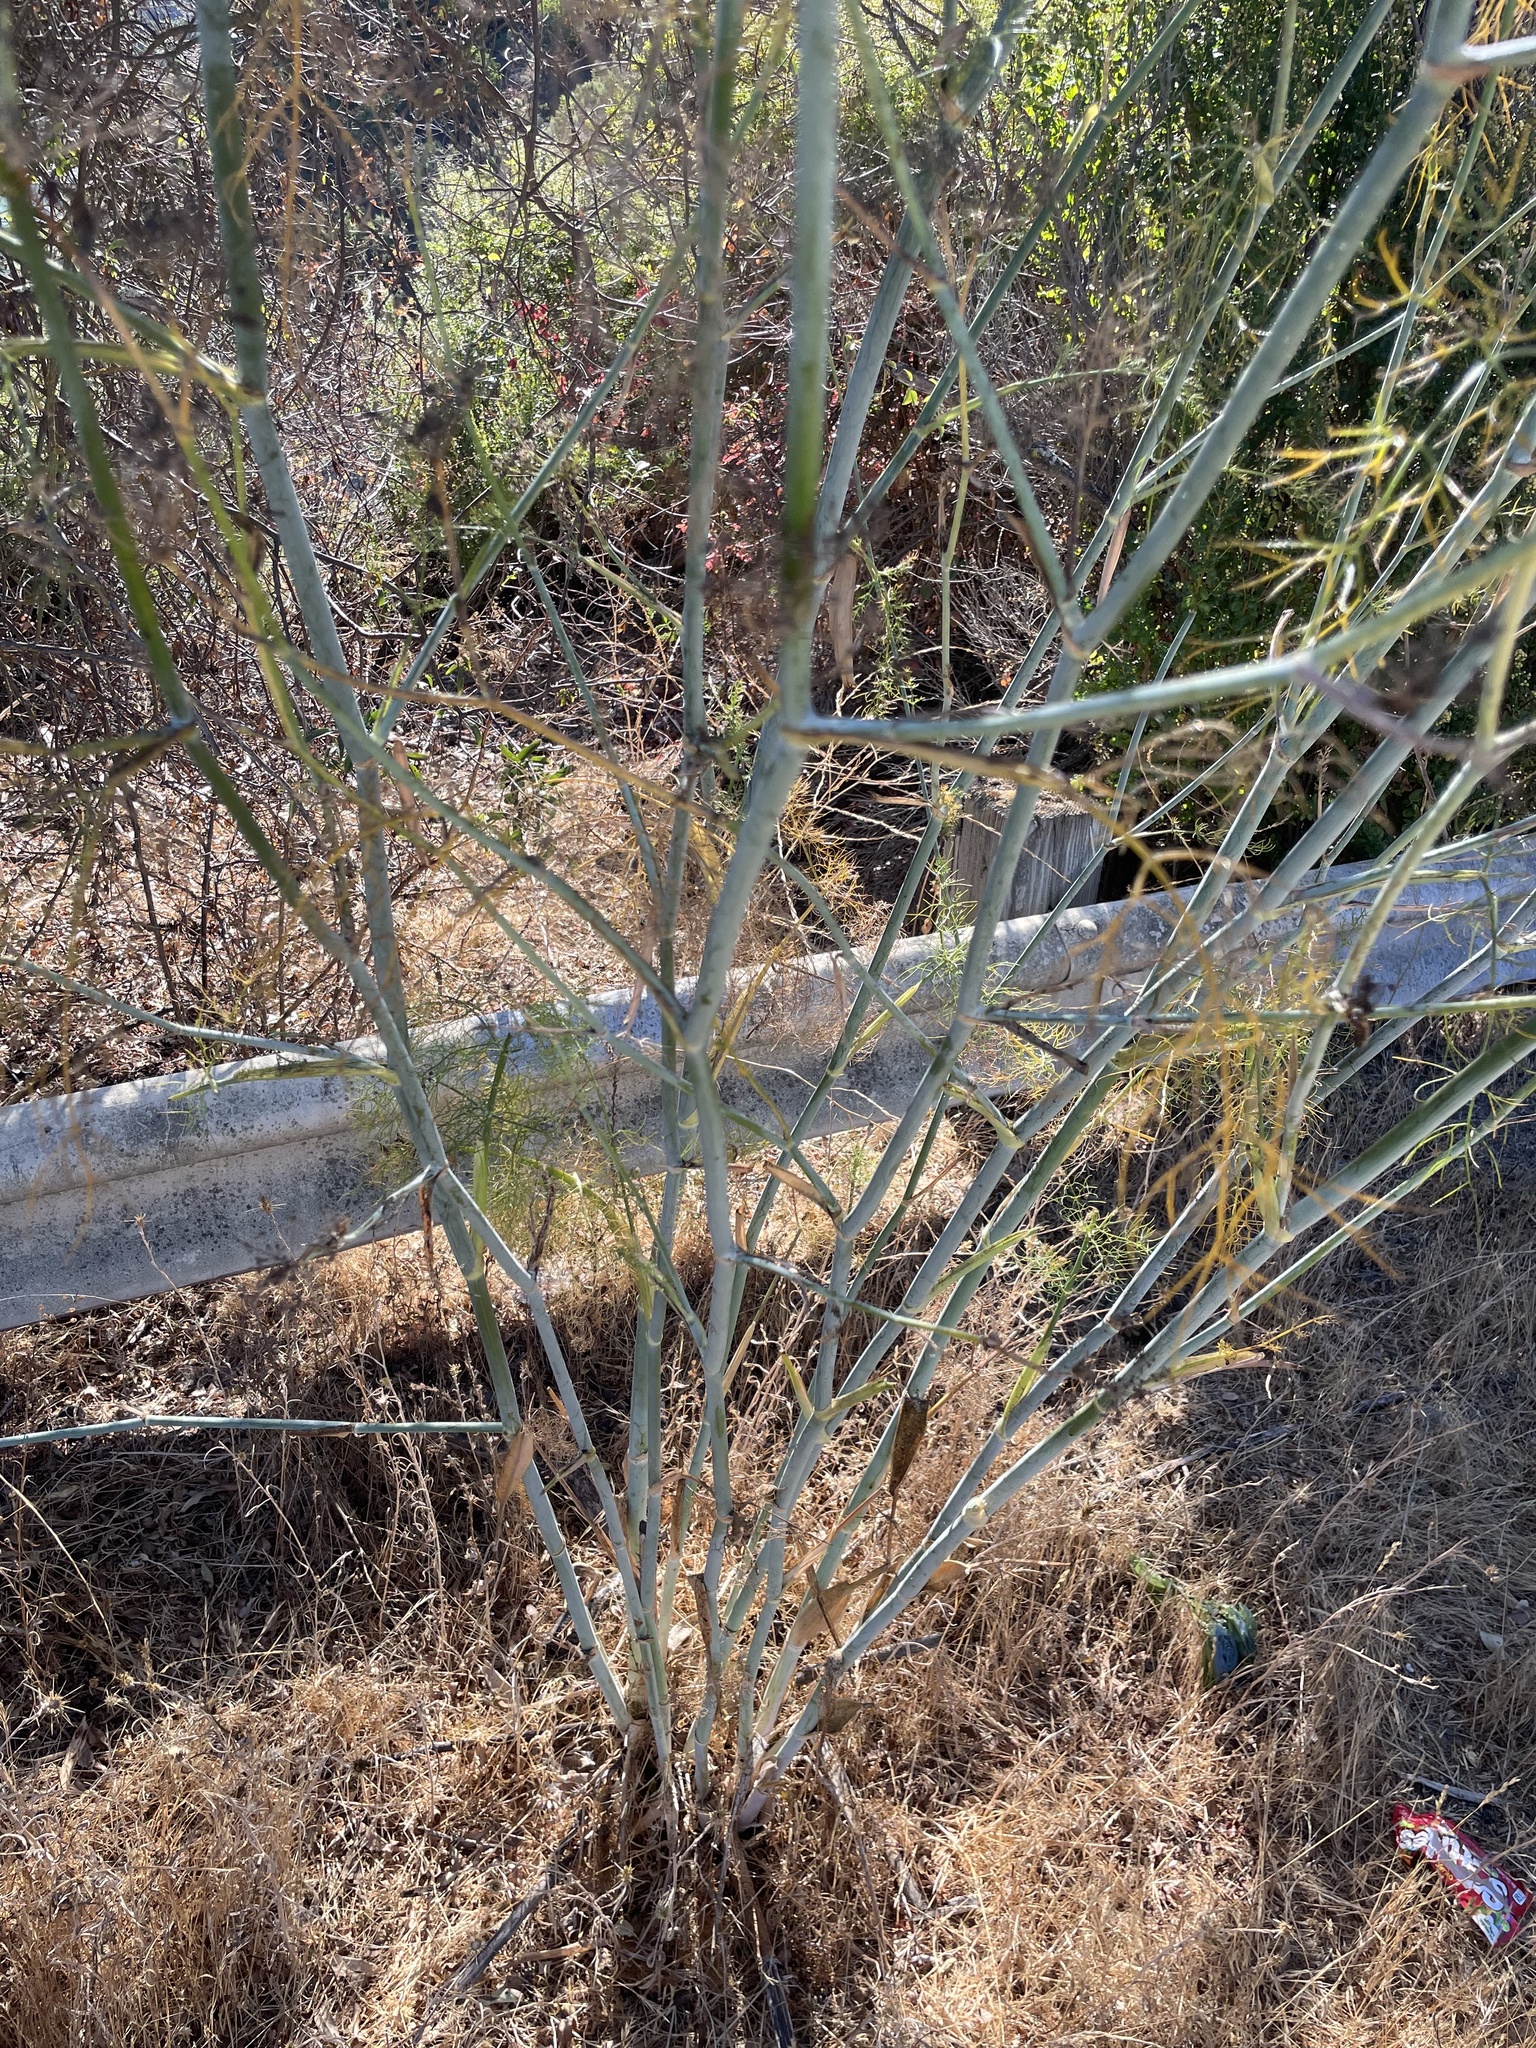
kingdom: Plantae
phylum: Tracheophyta
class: Magnoliopsida
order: Apiales
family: Apiaceae
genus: Foeniculum
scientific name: Foeniculum vulgare
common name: Fennel
